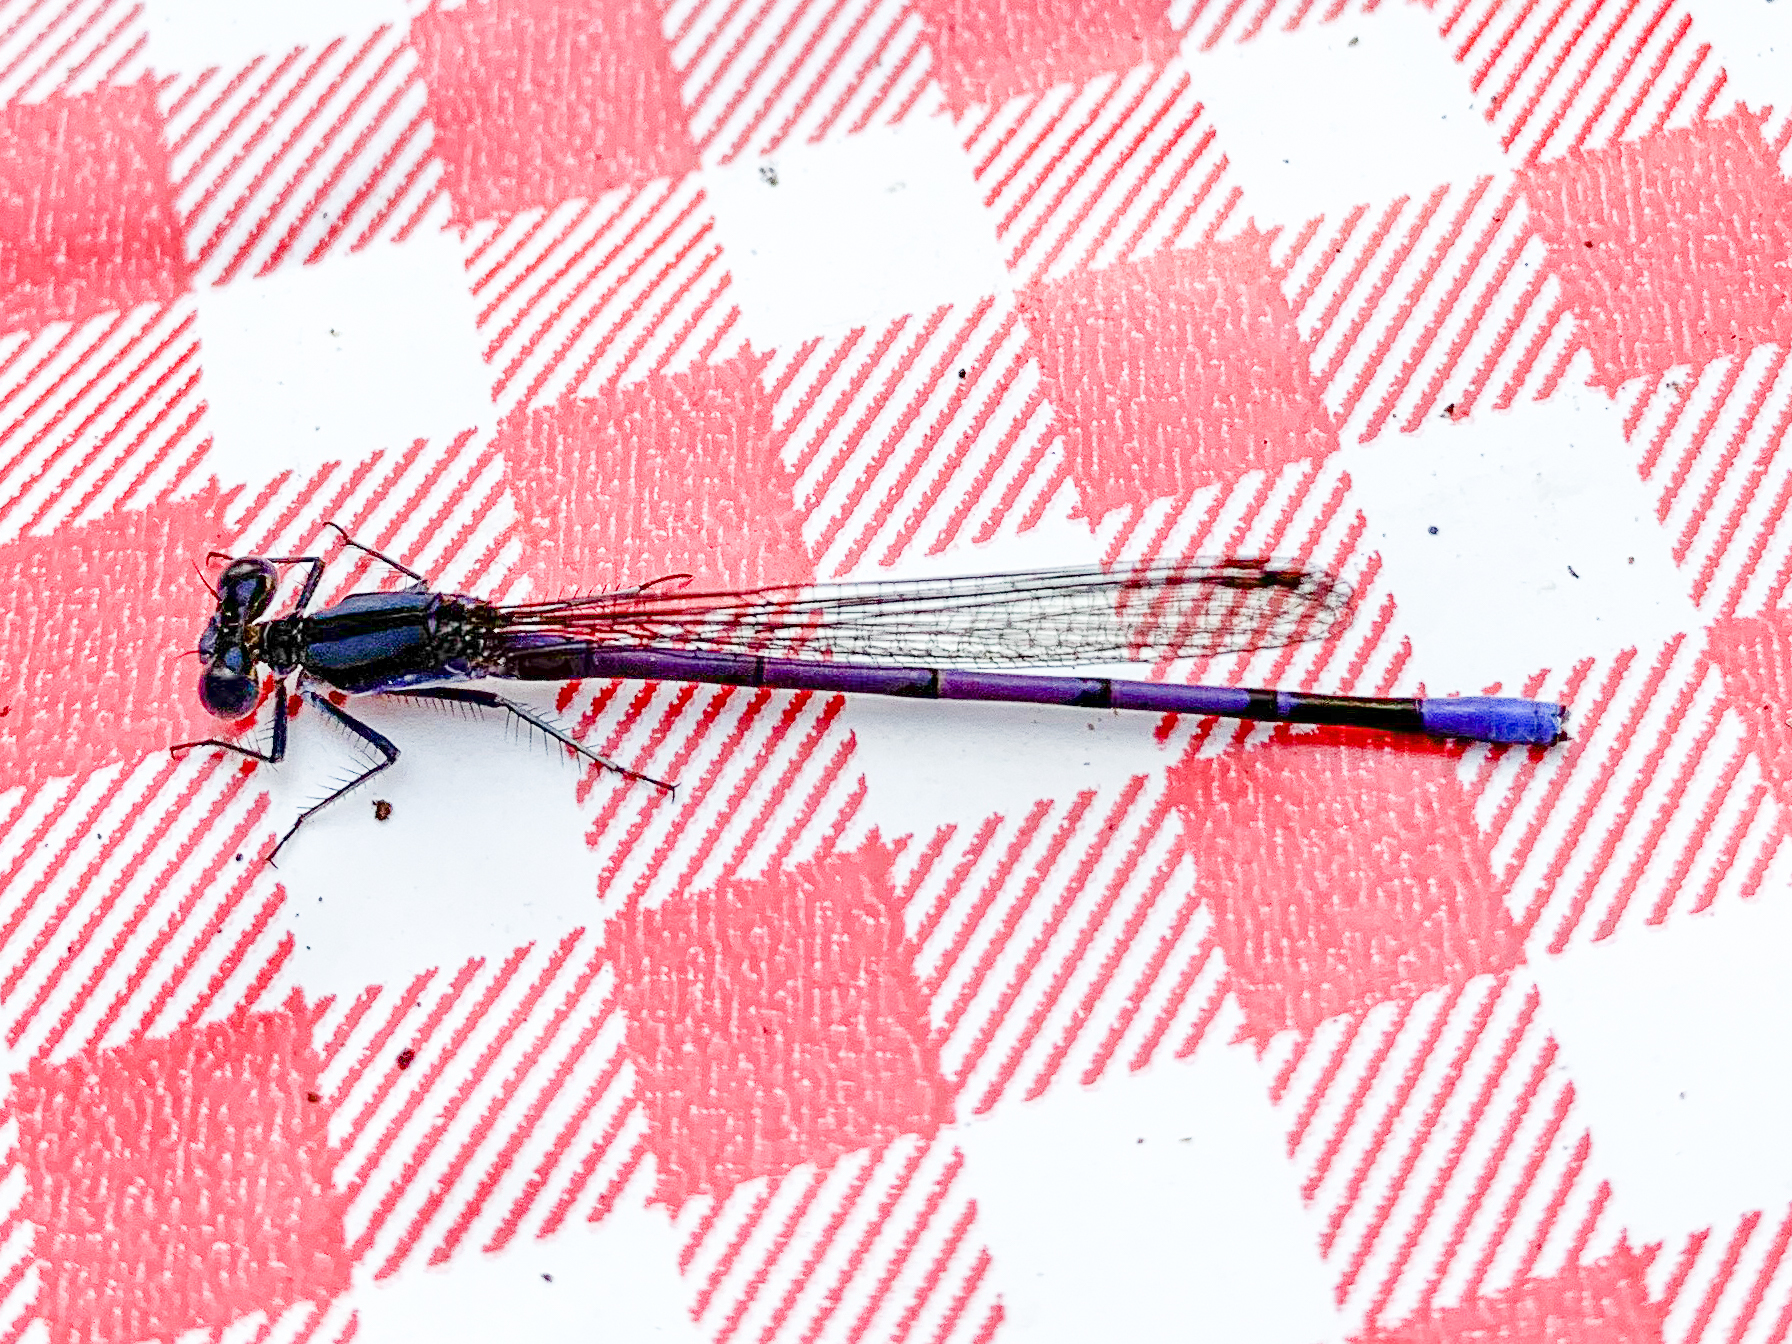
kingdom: Animalia
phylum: Arthropoda
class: Insecta
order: Odonata
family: Coenagrionidae
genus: Argia
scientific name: Argia fumipennis
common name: Variable dancer
